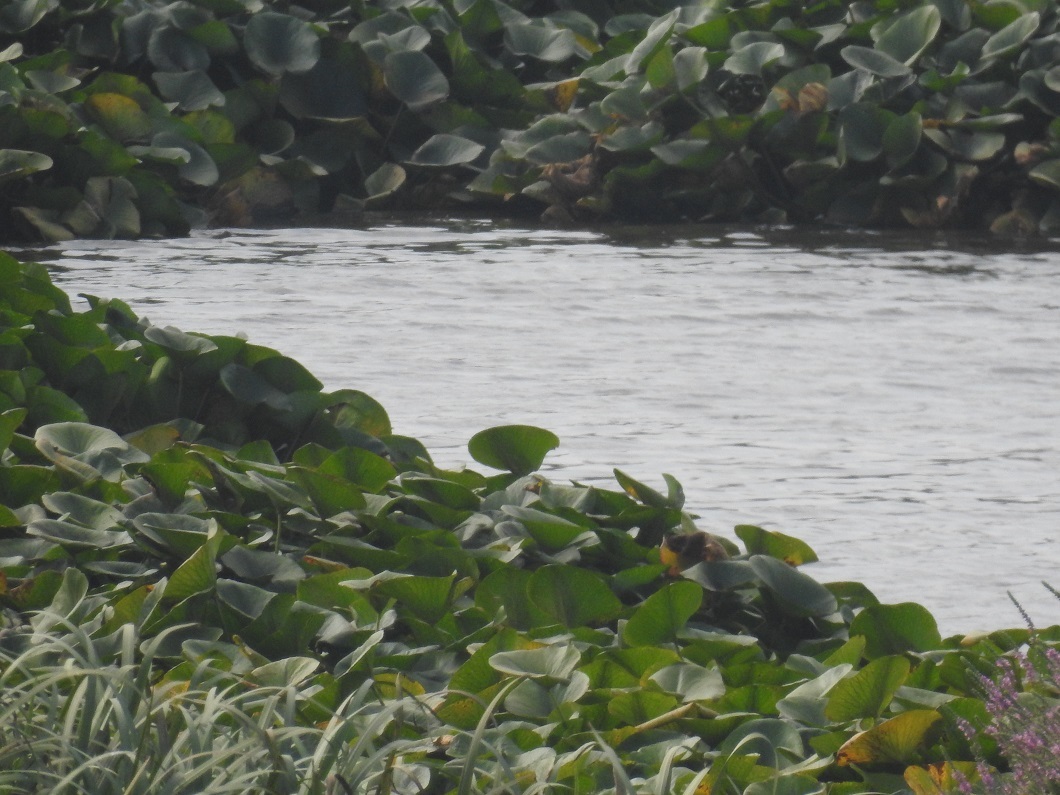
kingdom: Plantae
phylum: Tracheophyta
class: Magnoliopsida
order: Proteales
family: Nelumbonaceae
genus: Nelumbo
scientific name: Nelumbo nucifera
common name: Sacred lotus
